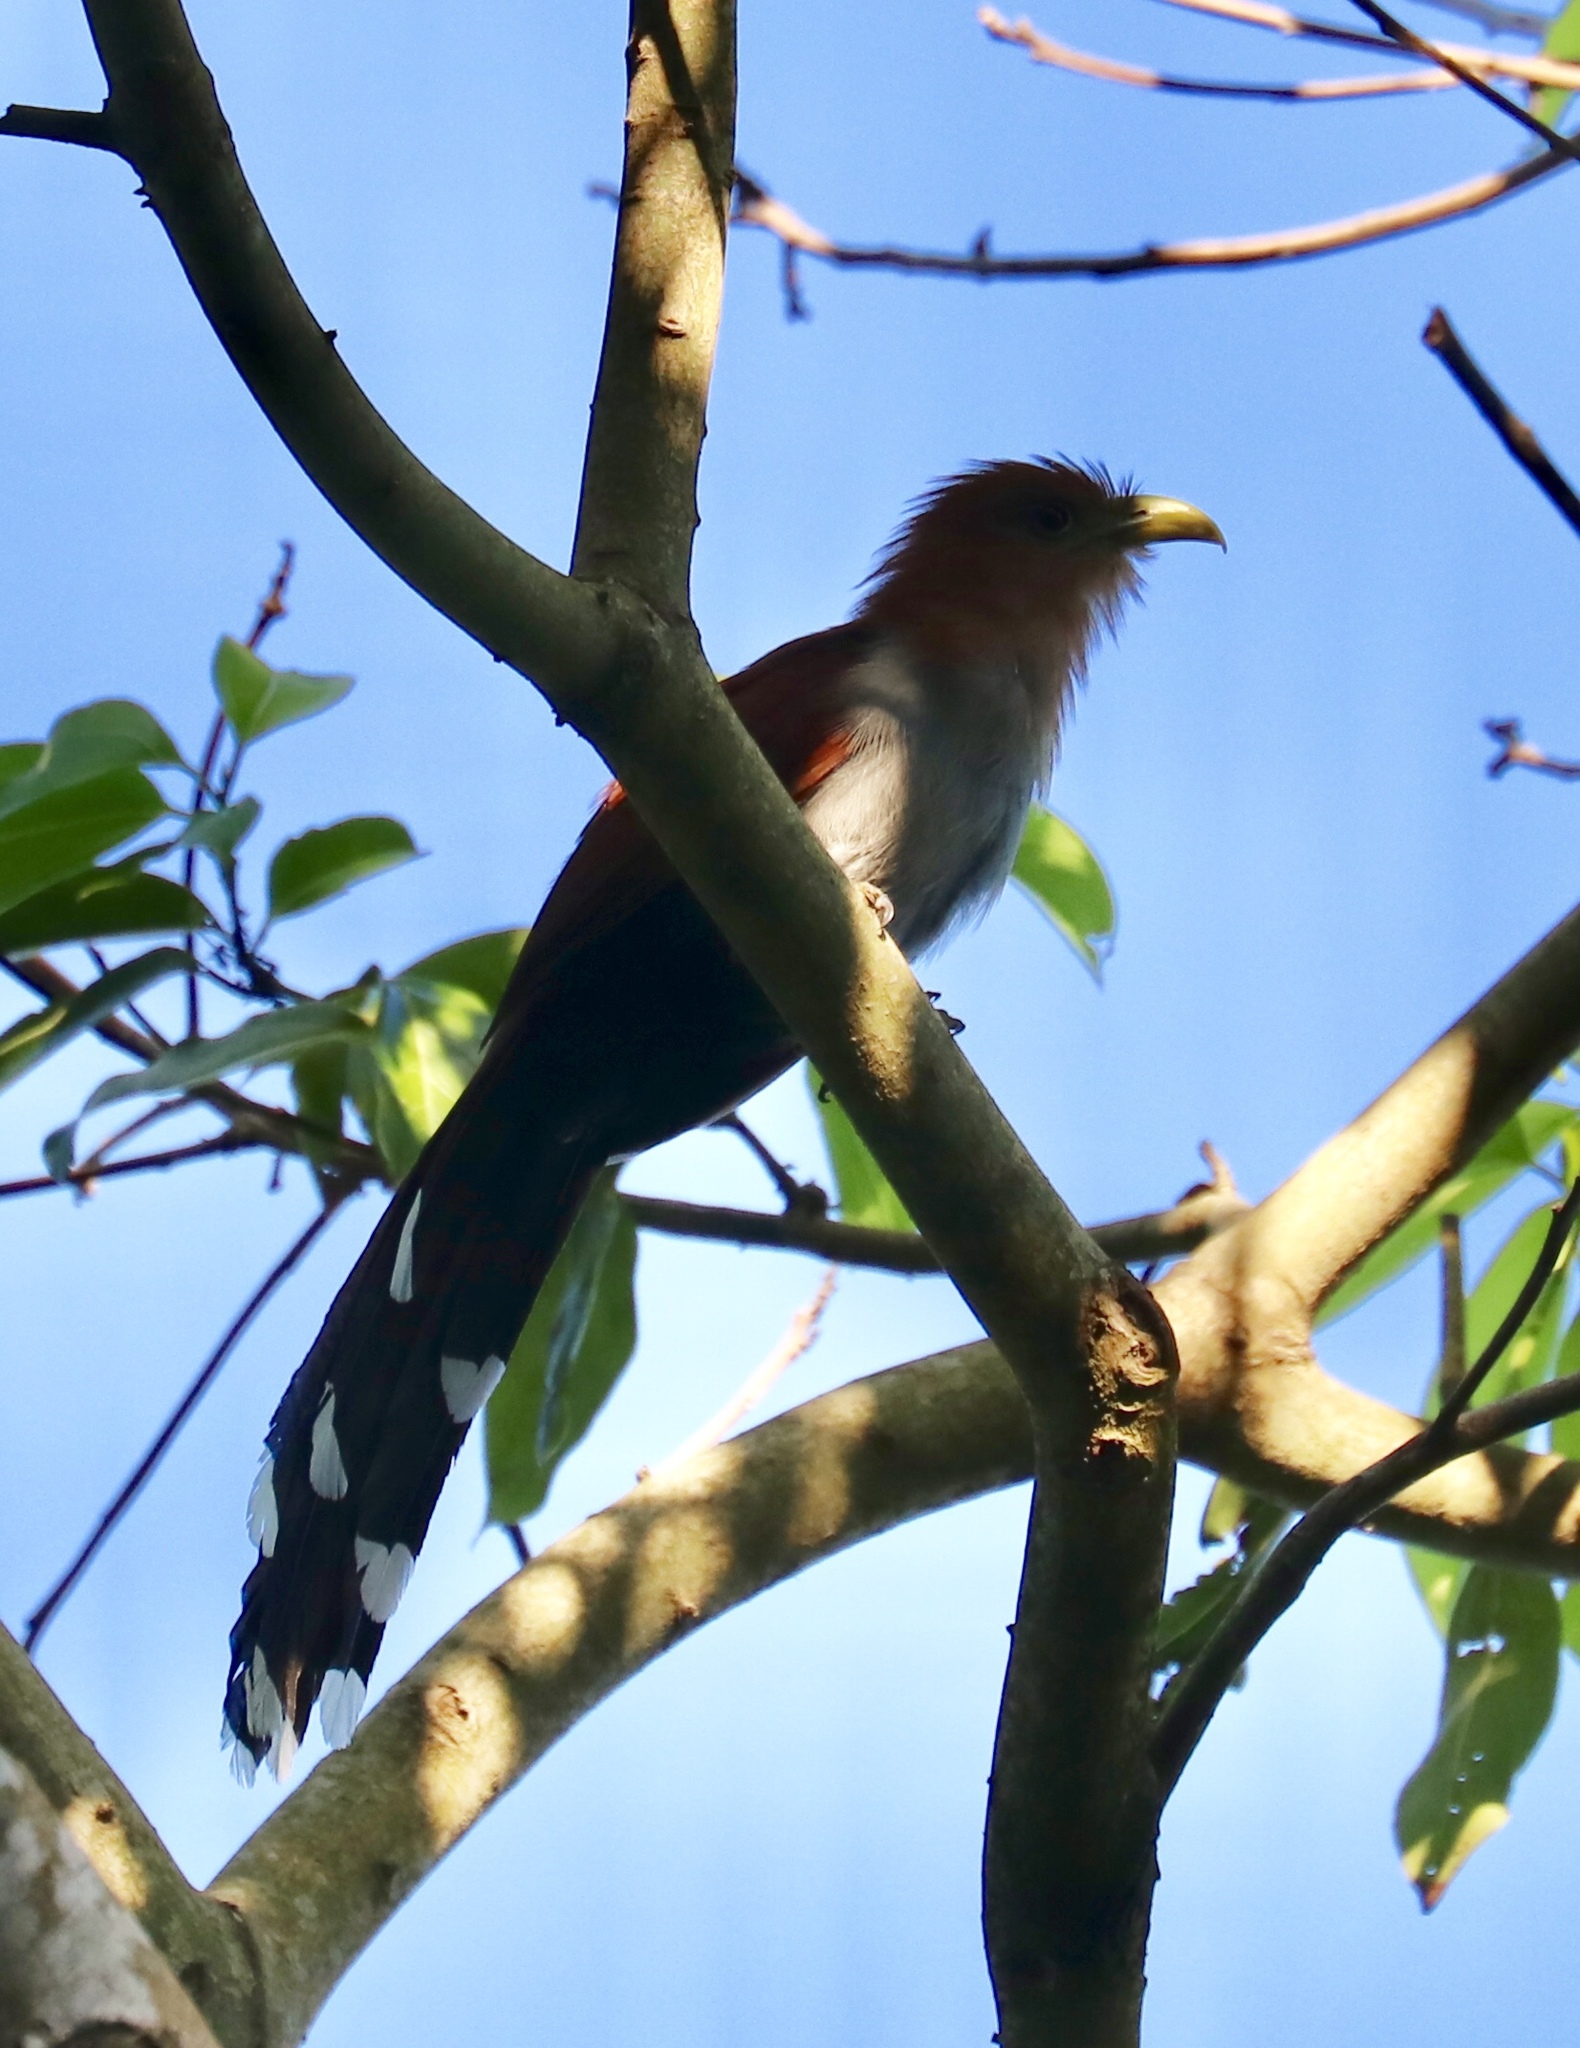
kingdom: Animalia
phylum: Chordata
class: Aves
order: Cuculiformes
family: Cuculidae
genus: Piaya
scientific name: Piaya cayana
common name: Squirrel cuckoo
